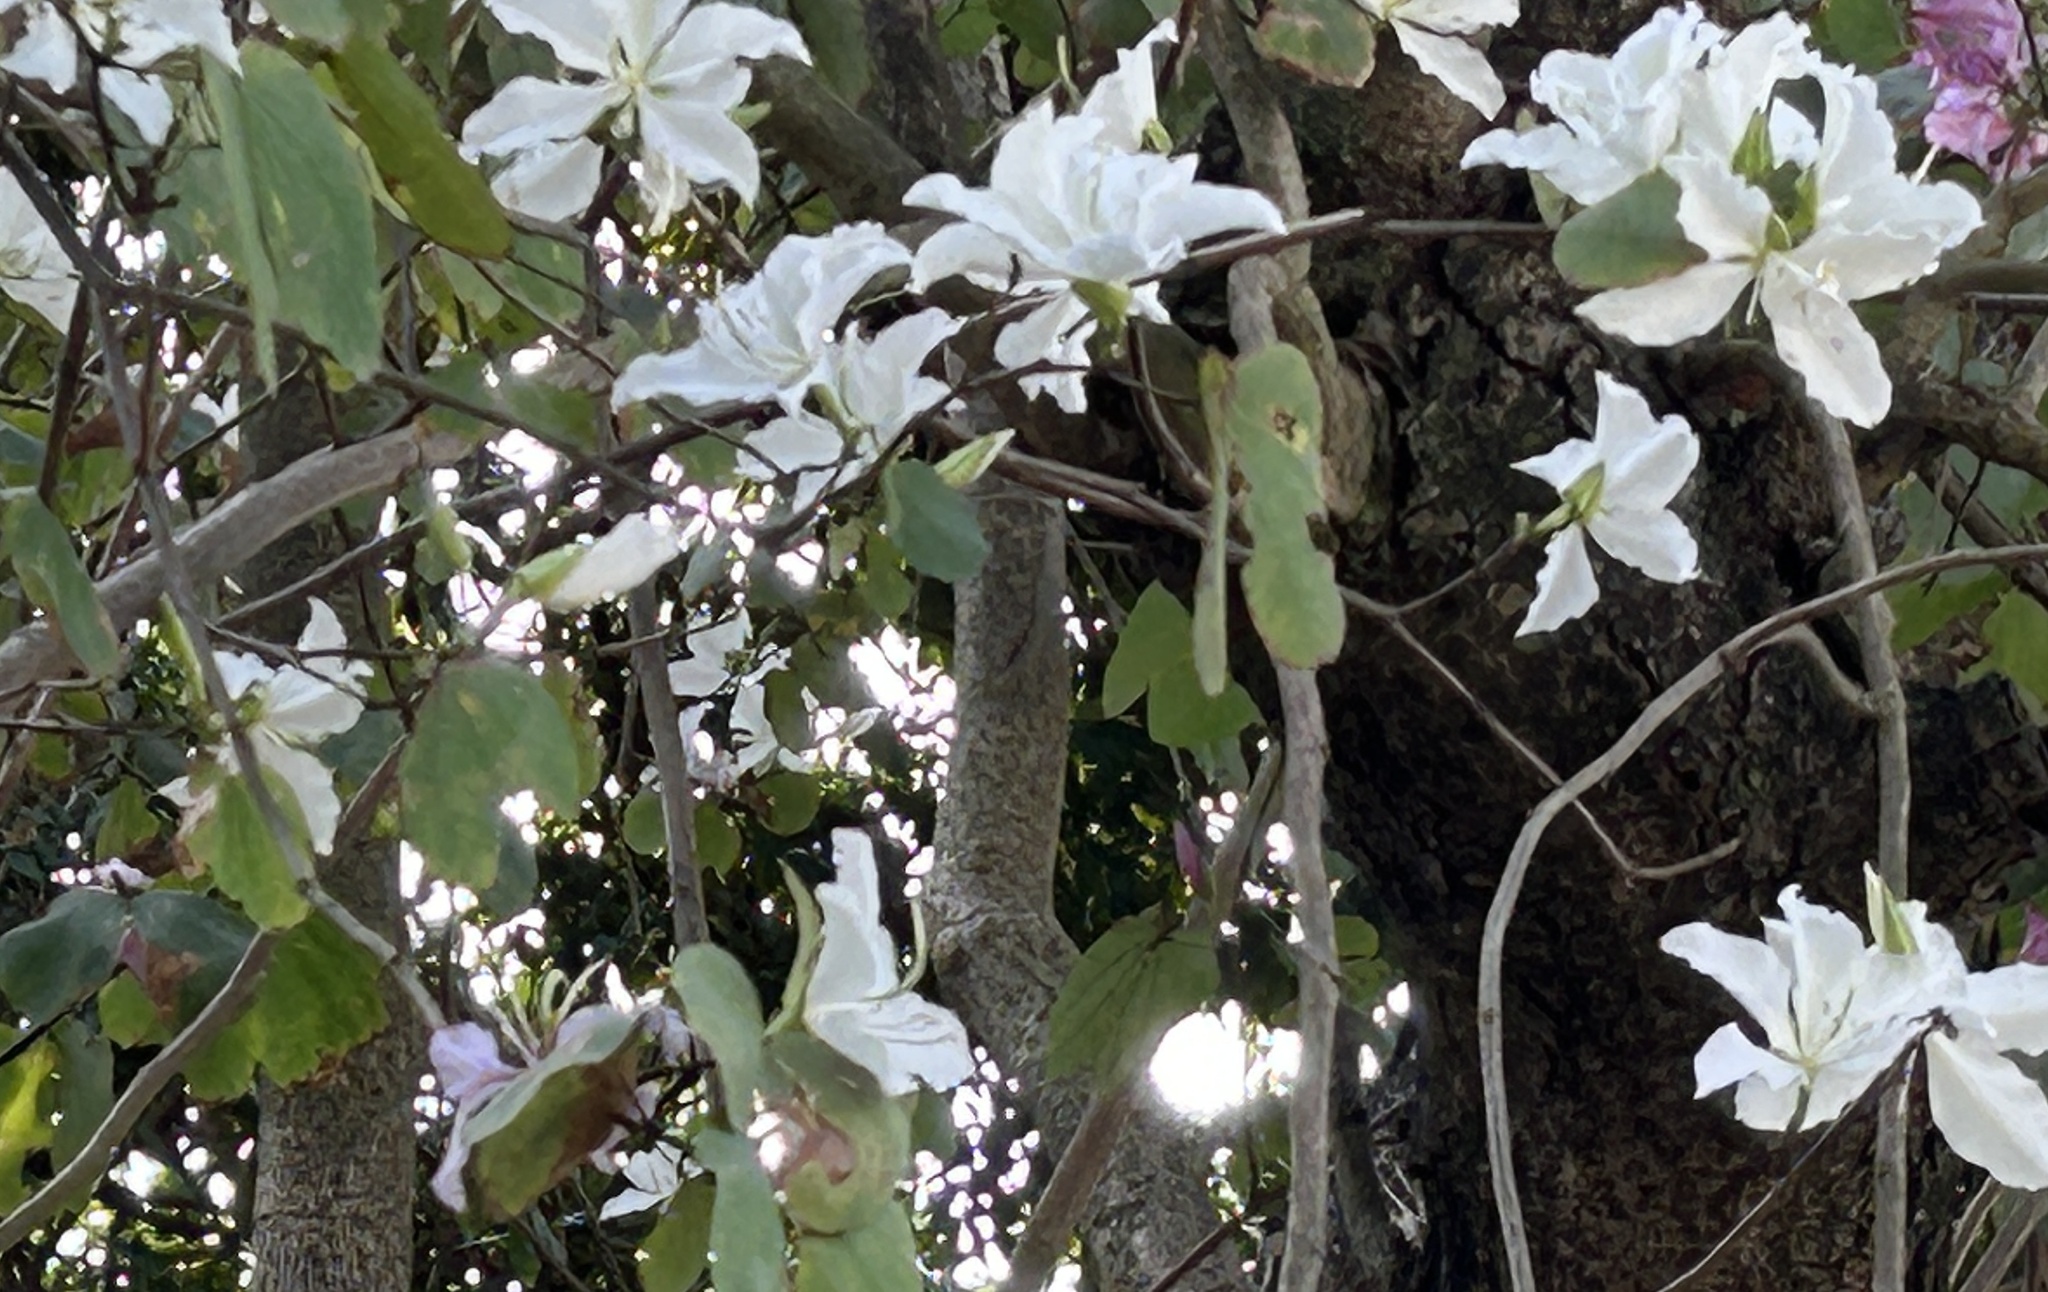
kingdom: Plantae
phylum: Tracheophyta
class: Magnoliopsida
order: Fabales
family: Fabaceae
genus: Bauhinia
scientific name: Bauhinia variegata
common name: Mountain ebony
